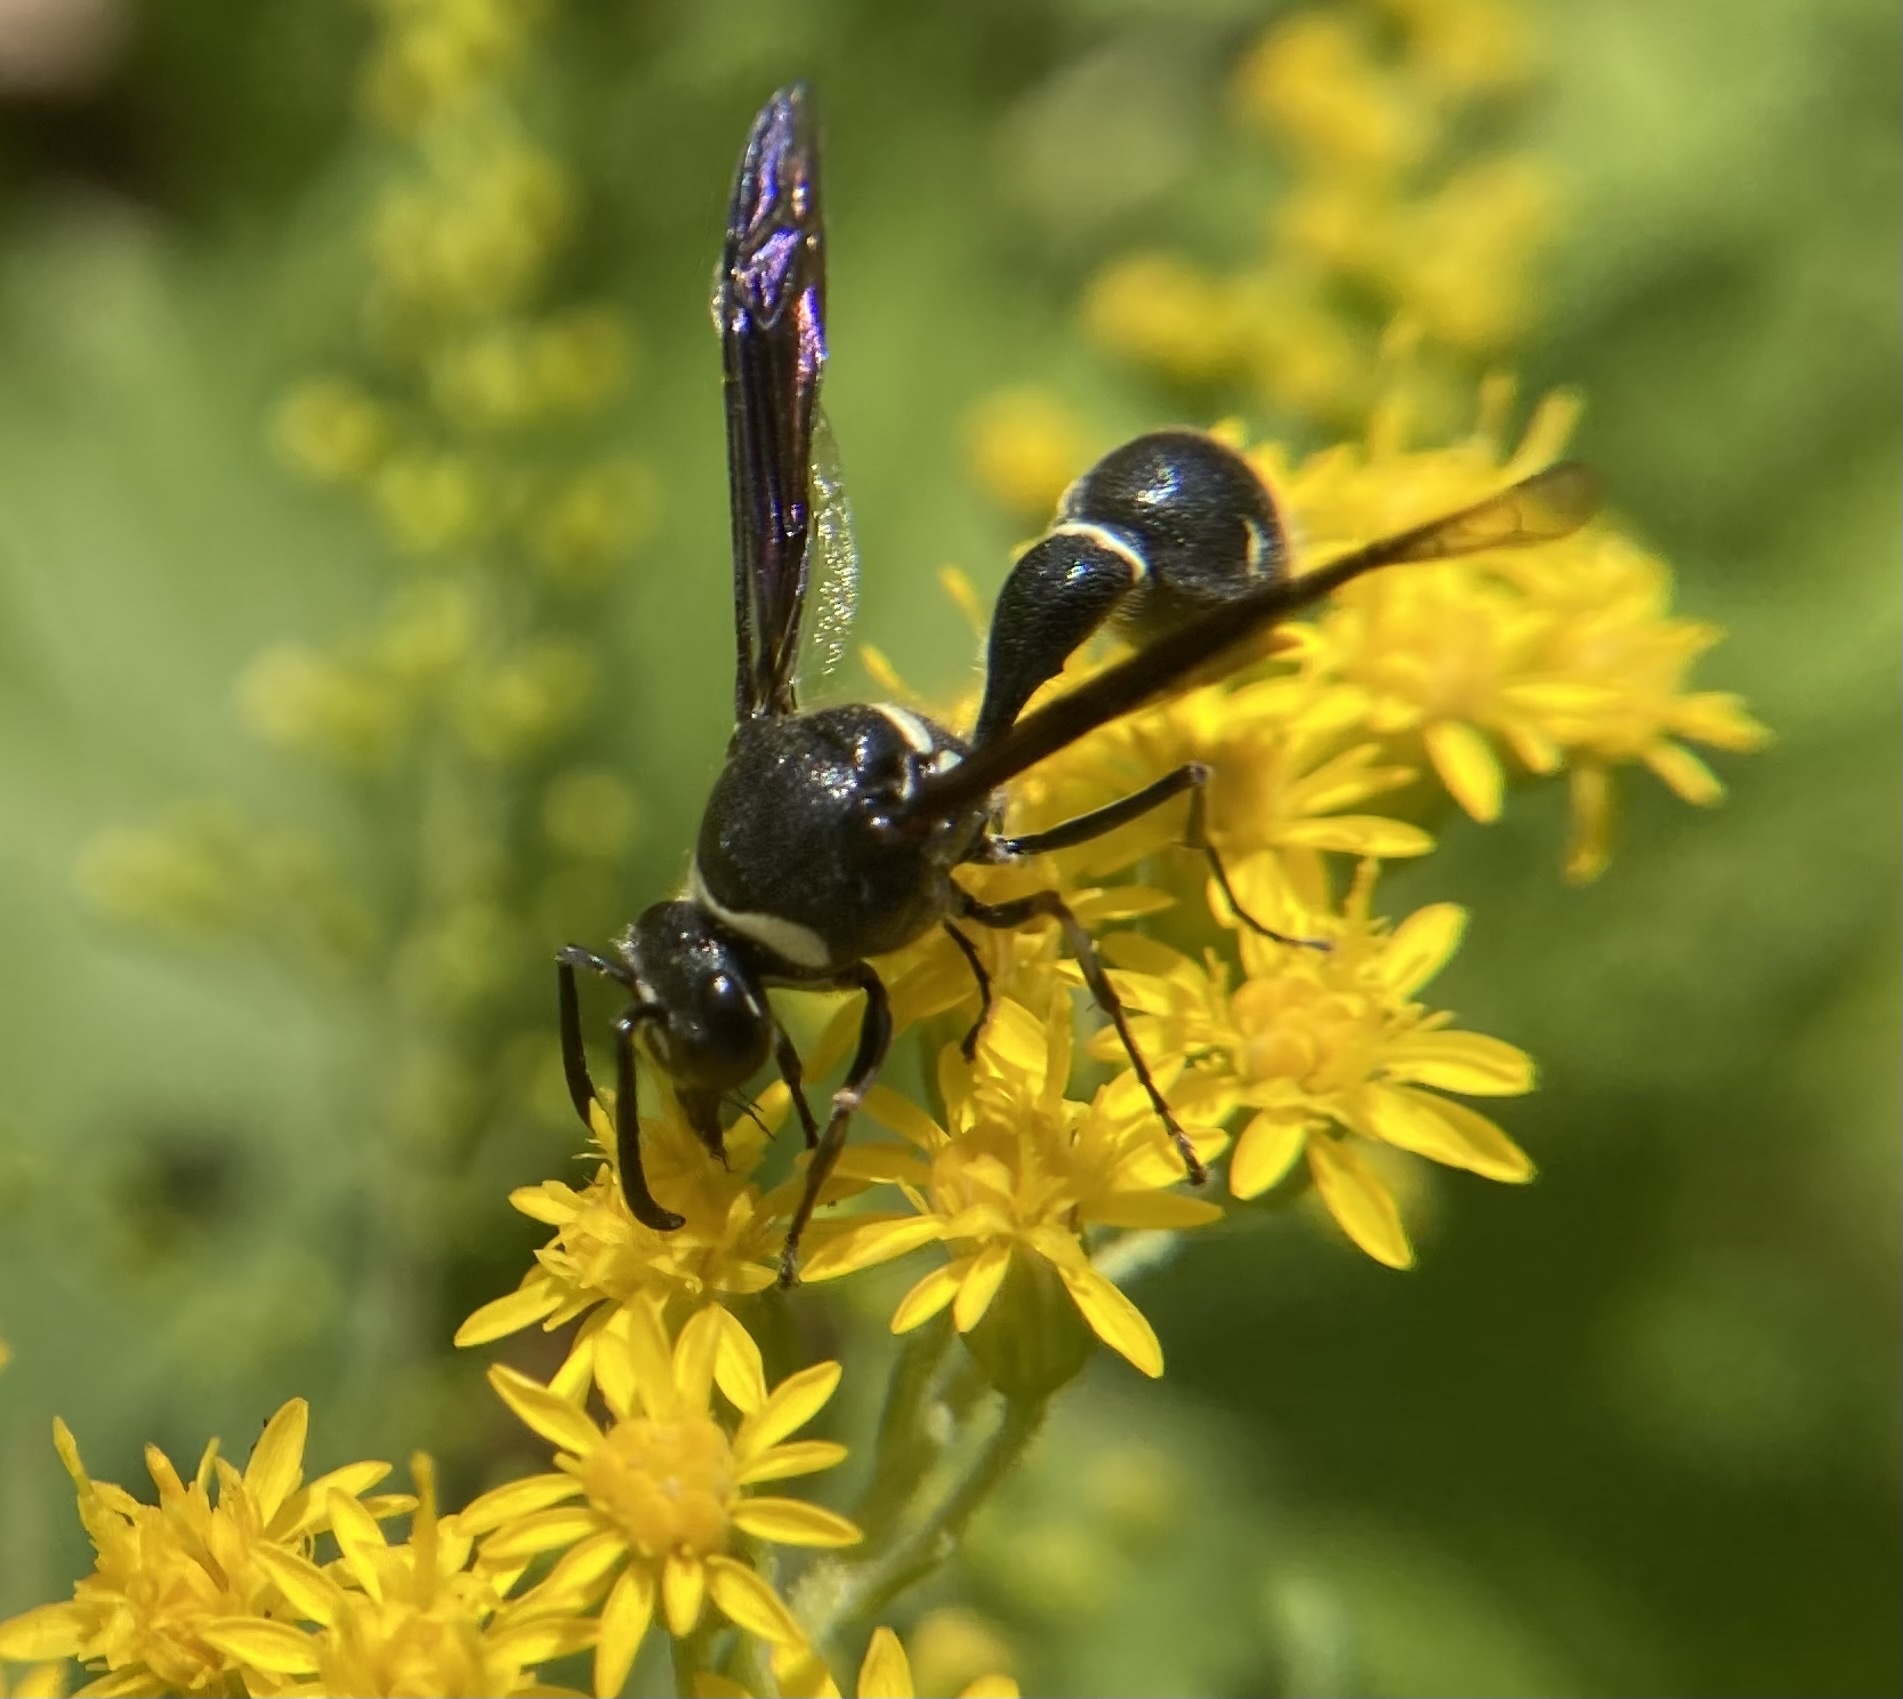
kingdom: Animalia
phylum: Arthropoda
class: Insecta
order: Hymenoptera
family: Vespidae
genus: Eumenes
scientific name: Eumenes fraternus
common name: Fraternal potter wasp
